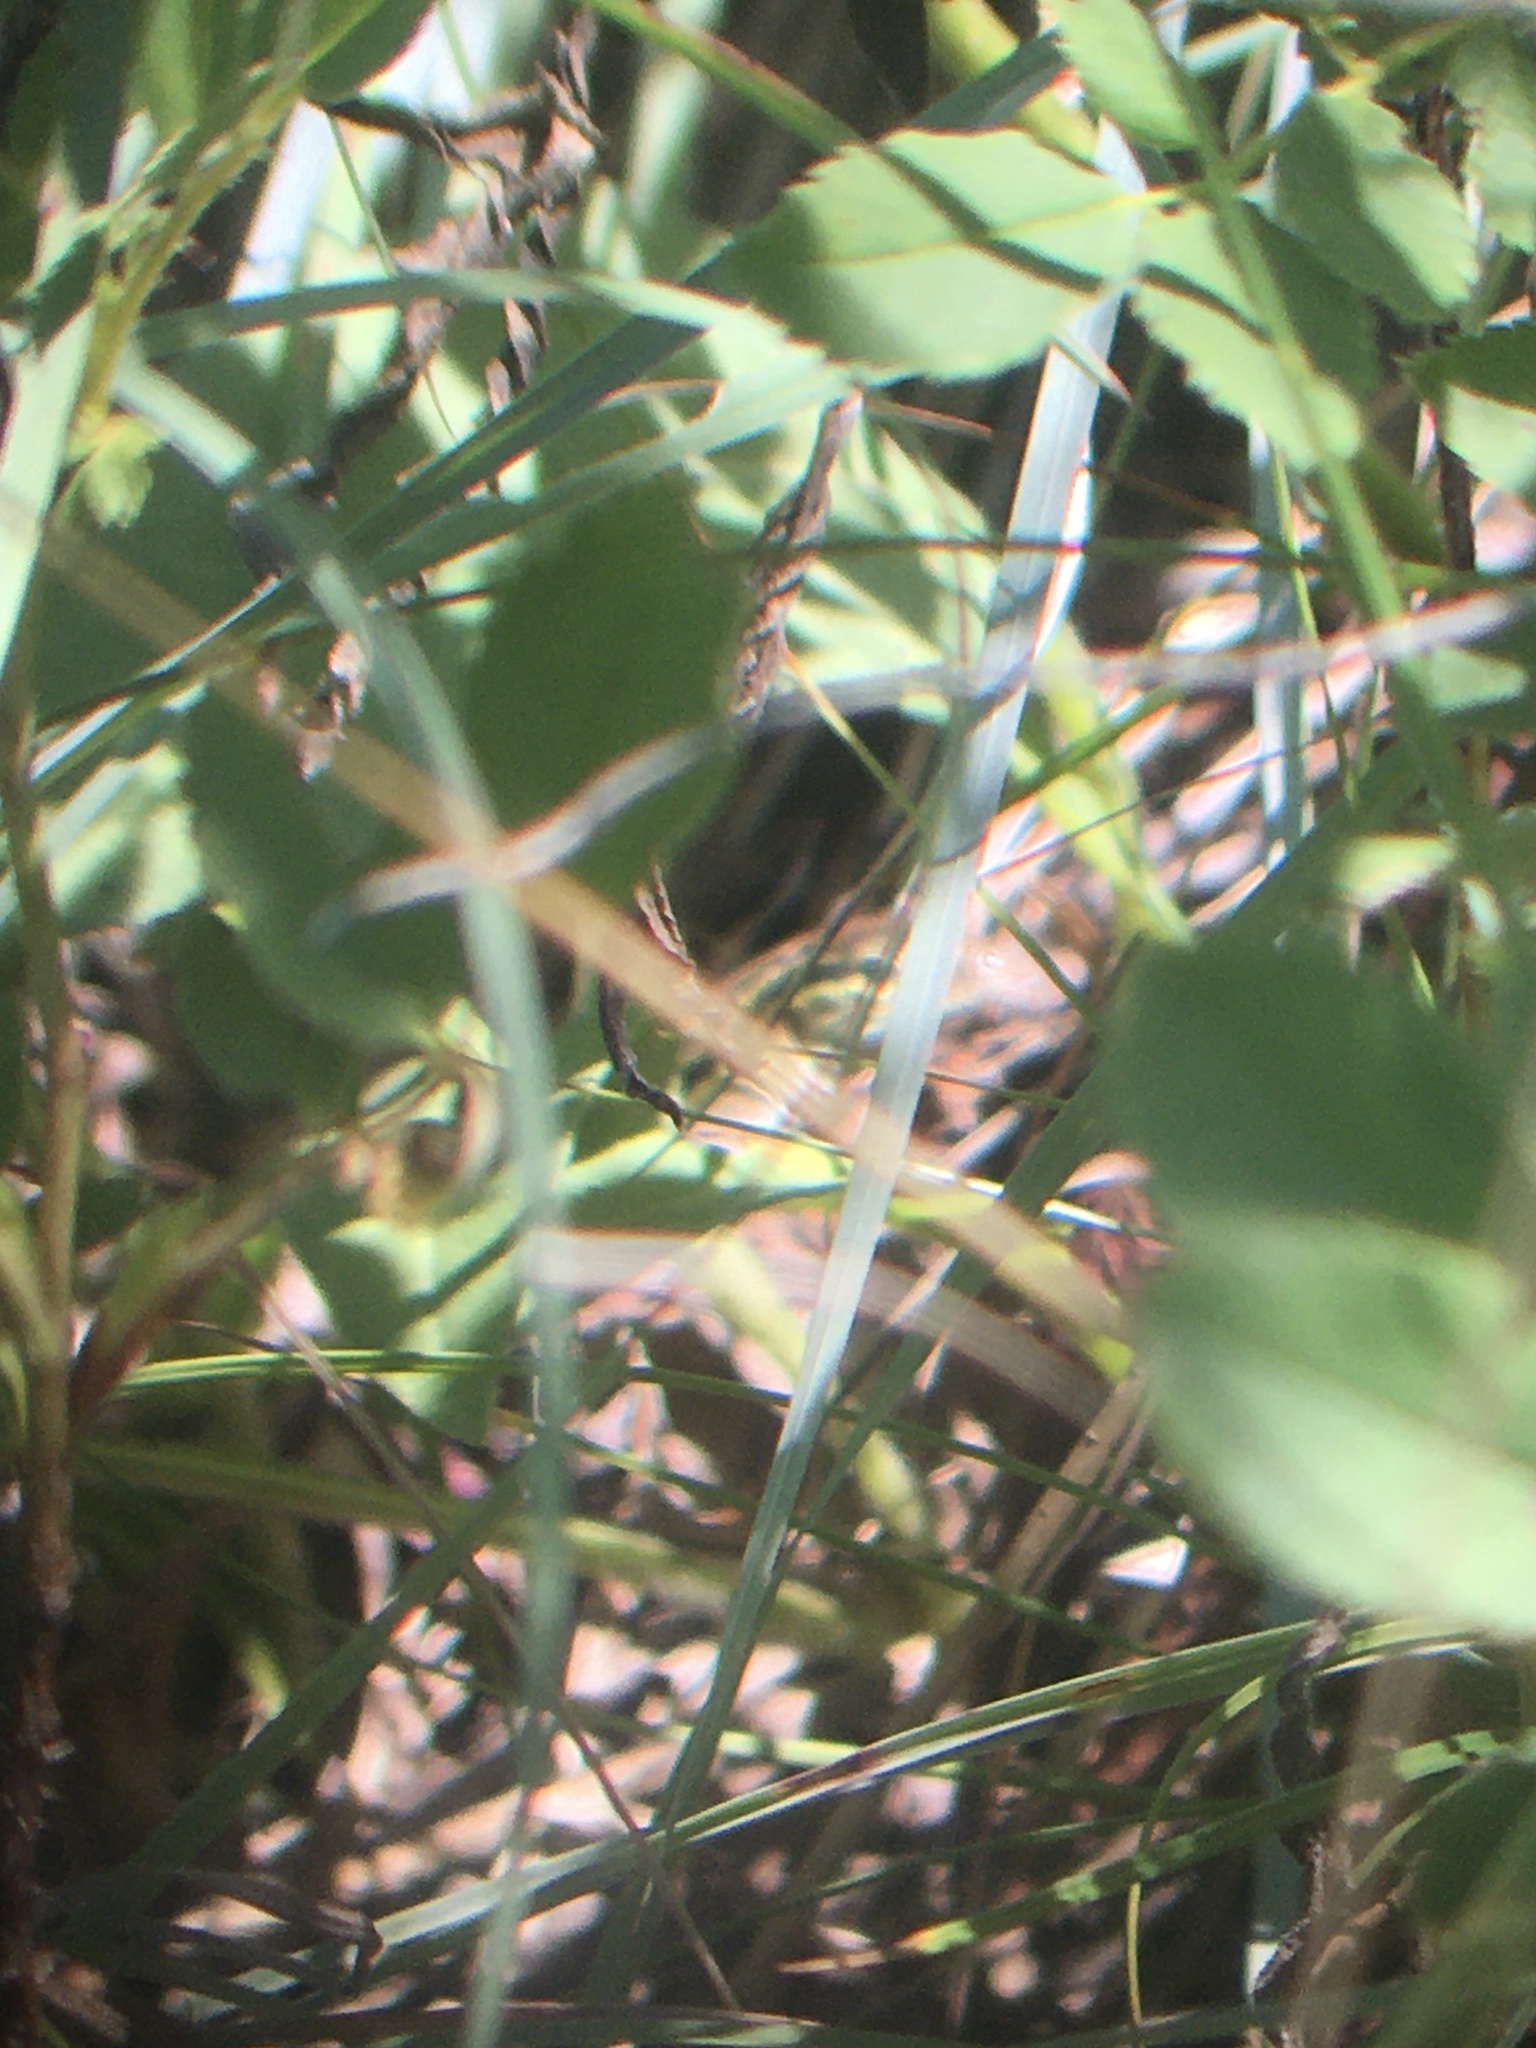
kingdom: Animalia
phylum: Chordata
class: Squamata
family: Teiidae
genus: Aspidoscelis
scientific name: Aspidoscelis sexlineatus
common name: Six-lined racerunner
